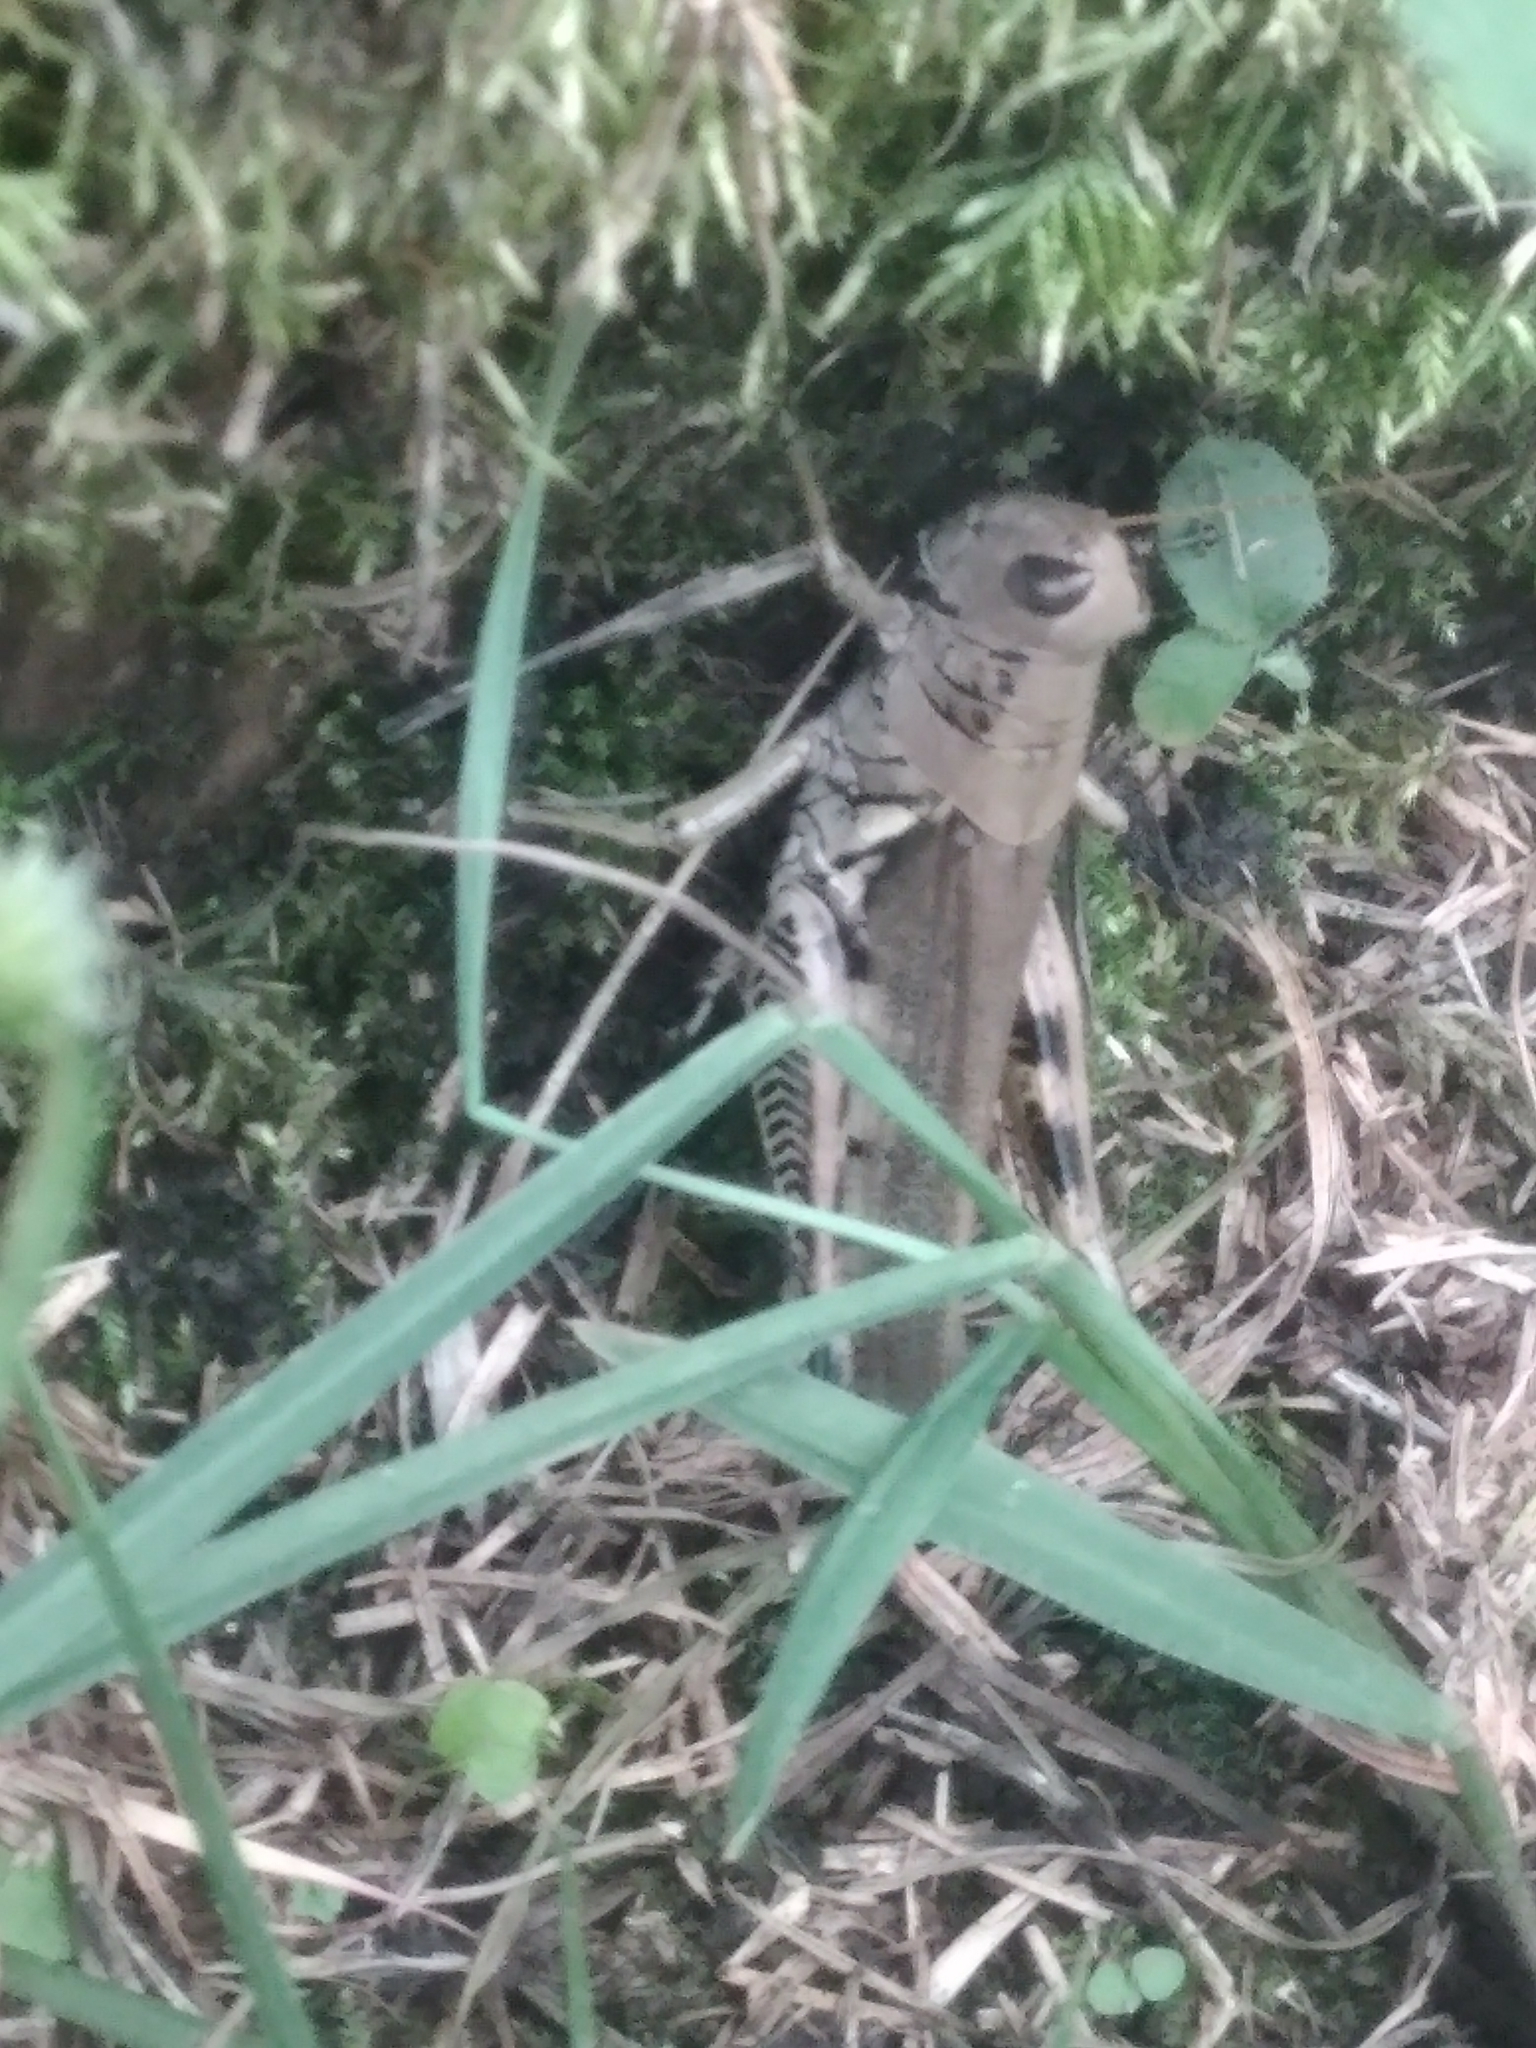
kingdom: Animalia
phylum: Arthropoda
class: Insecta
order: Orthoptera
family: Acrididae
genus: Melanoplus
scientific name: Melanoplus differentialis
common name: Differential grasshopper
